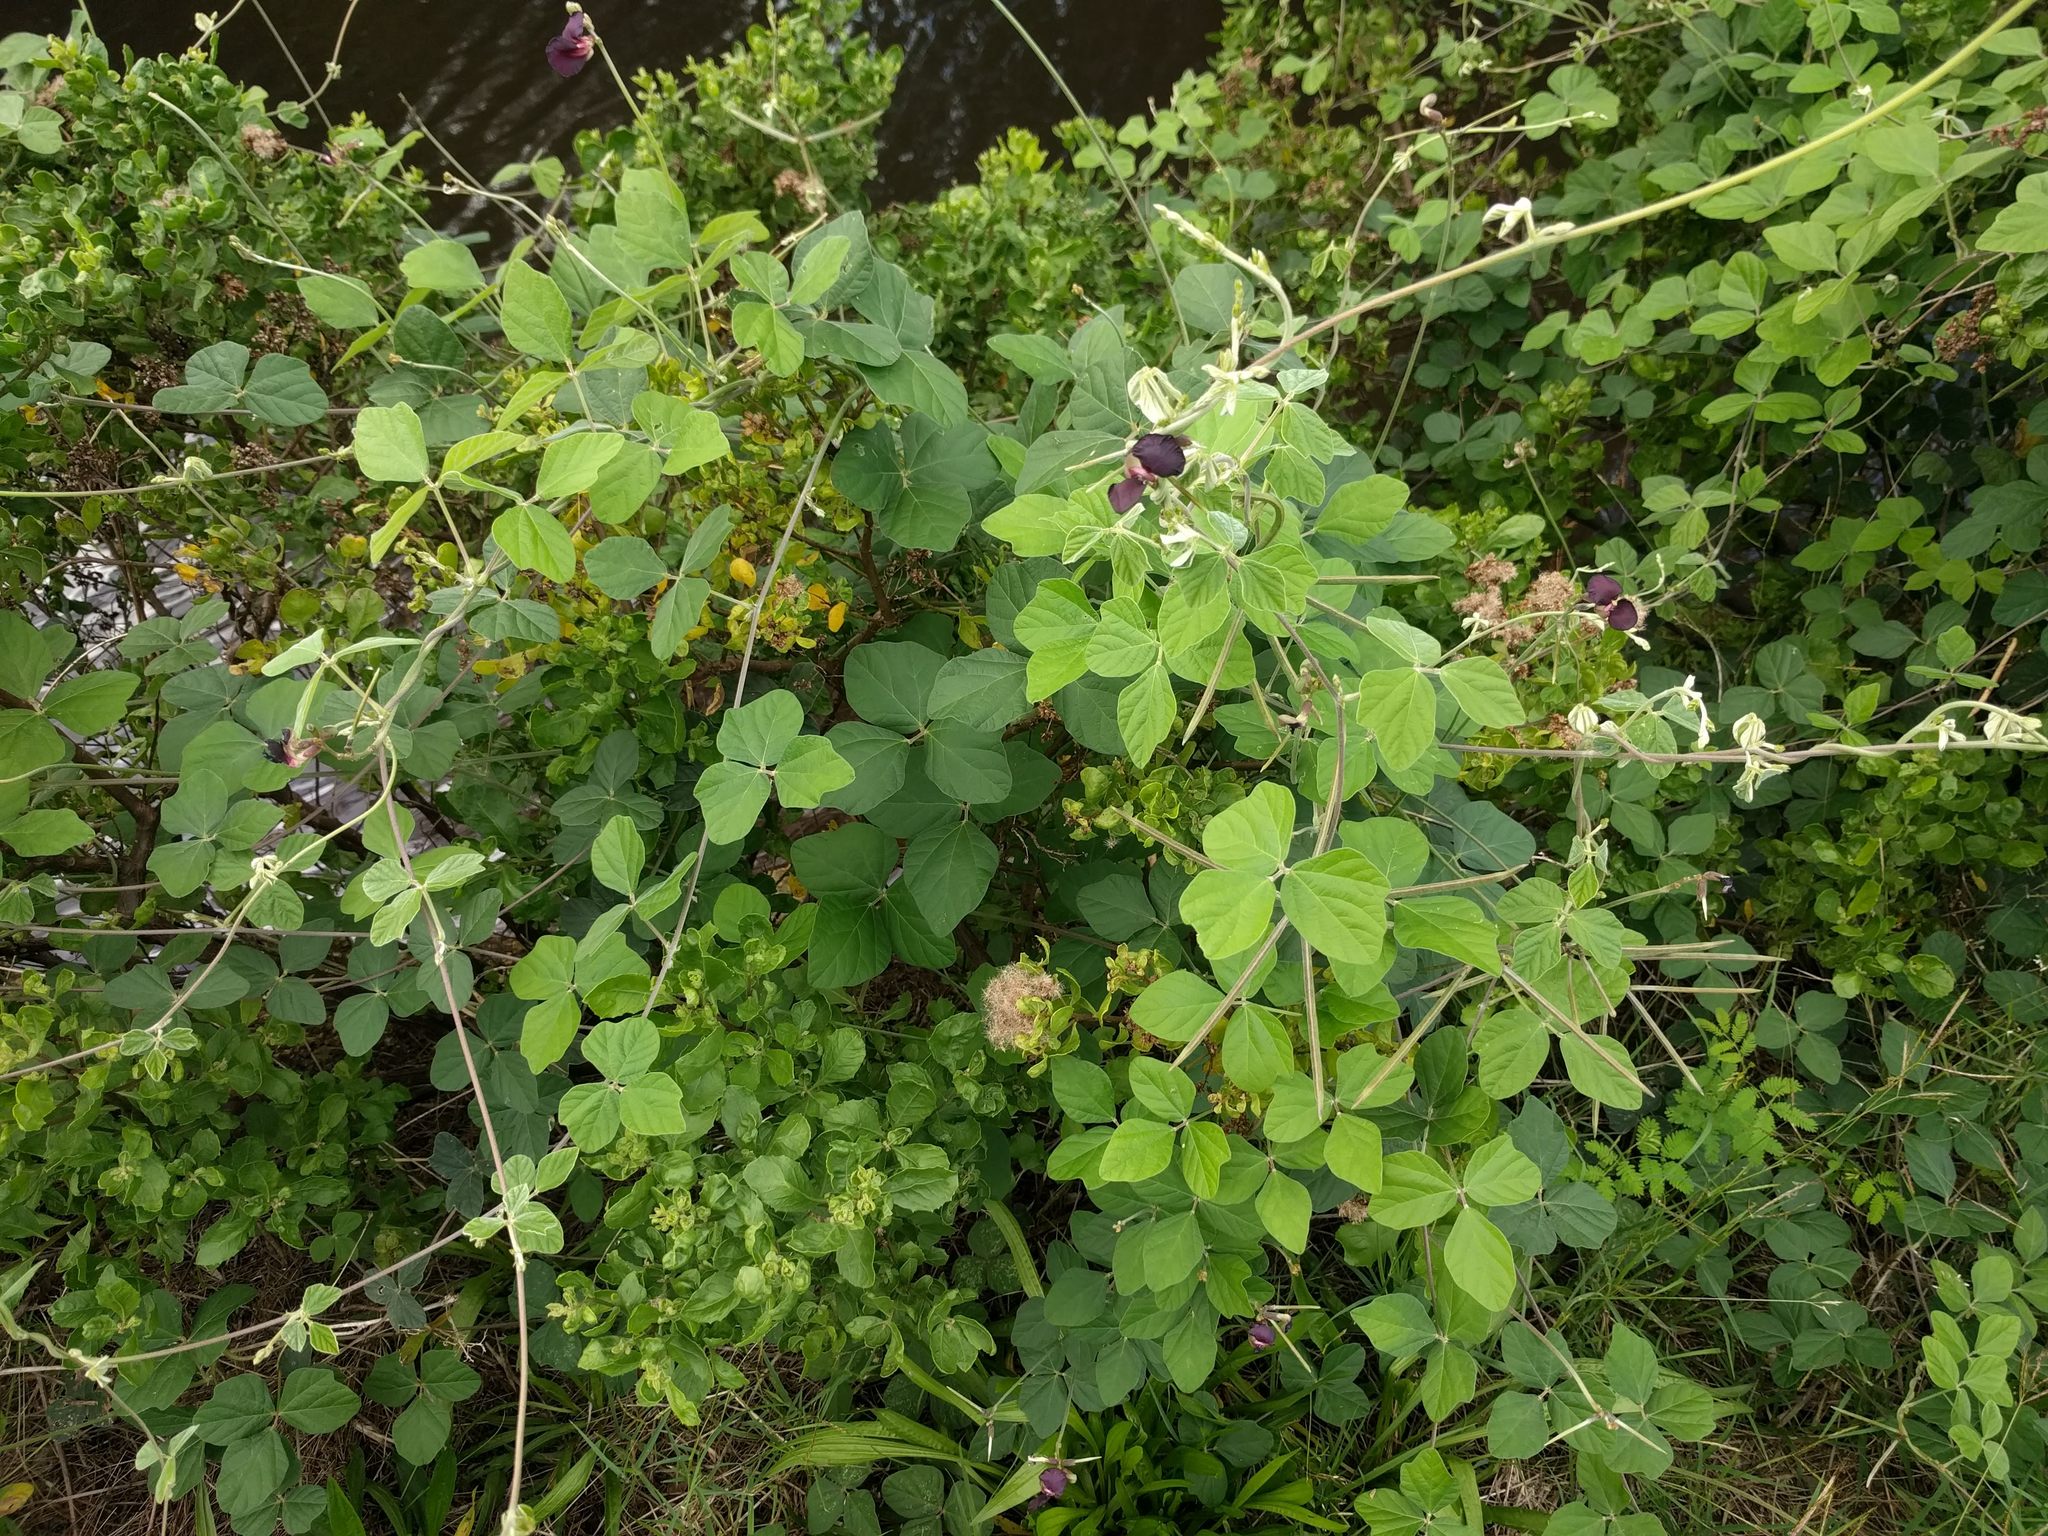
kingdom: Plantae
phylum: Tracheophyta
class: Magnoliopsida
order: Fabales
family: Fabaceae
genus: Macroptilium
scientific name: Macroptilium atropurpureum
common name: Purple bushbean
